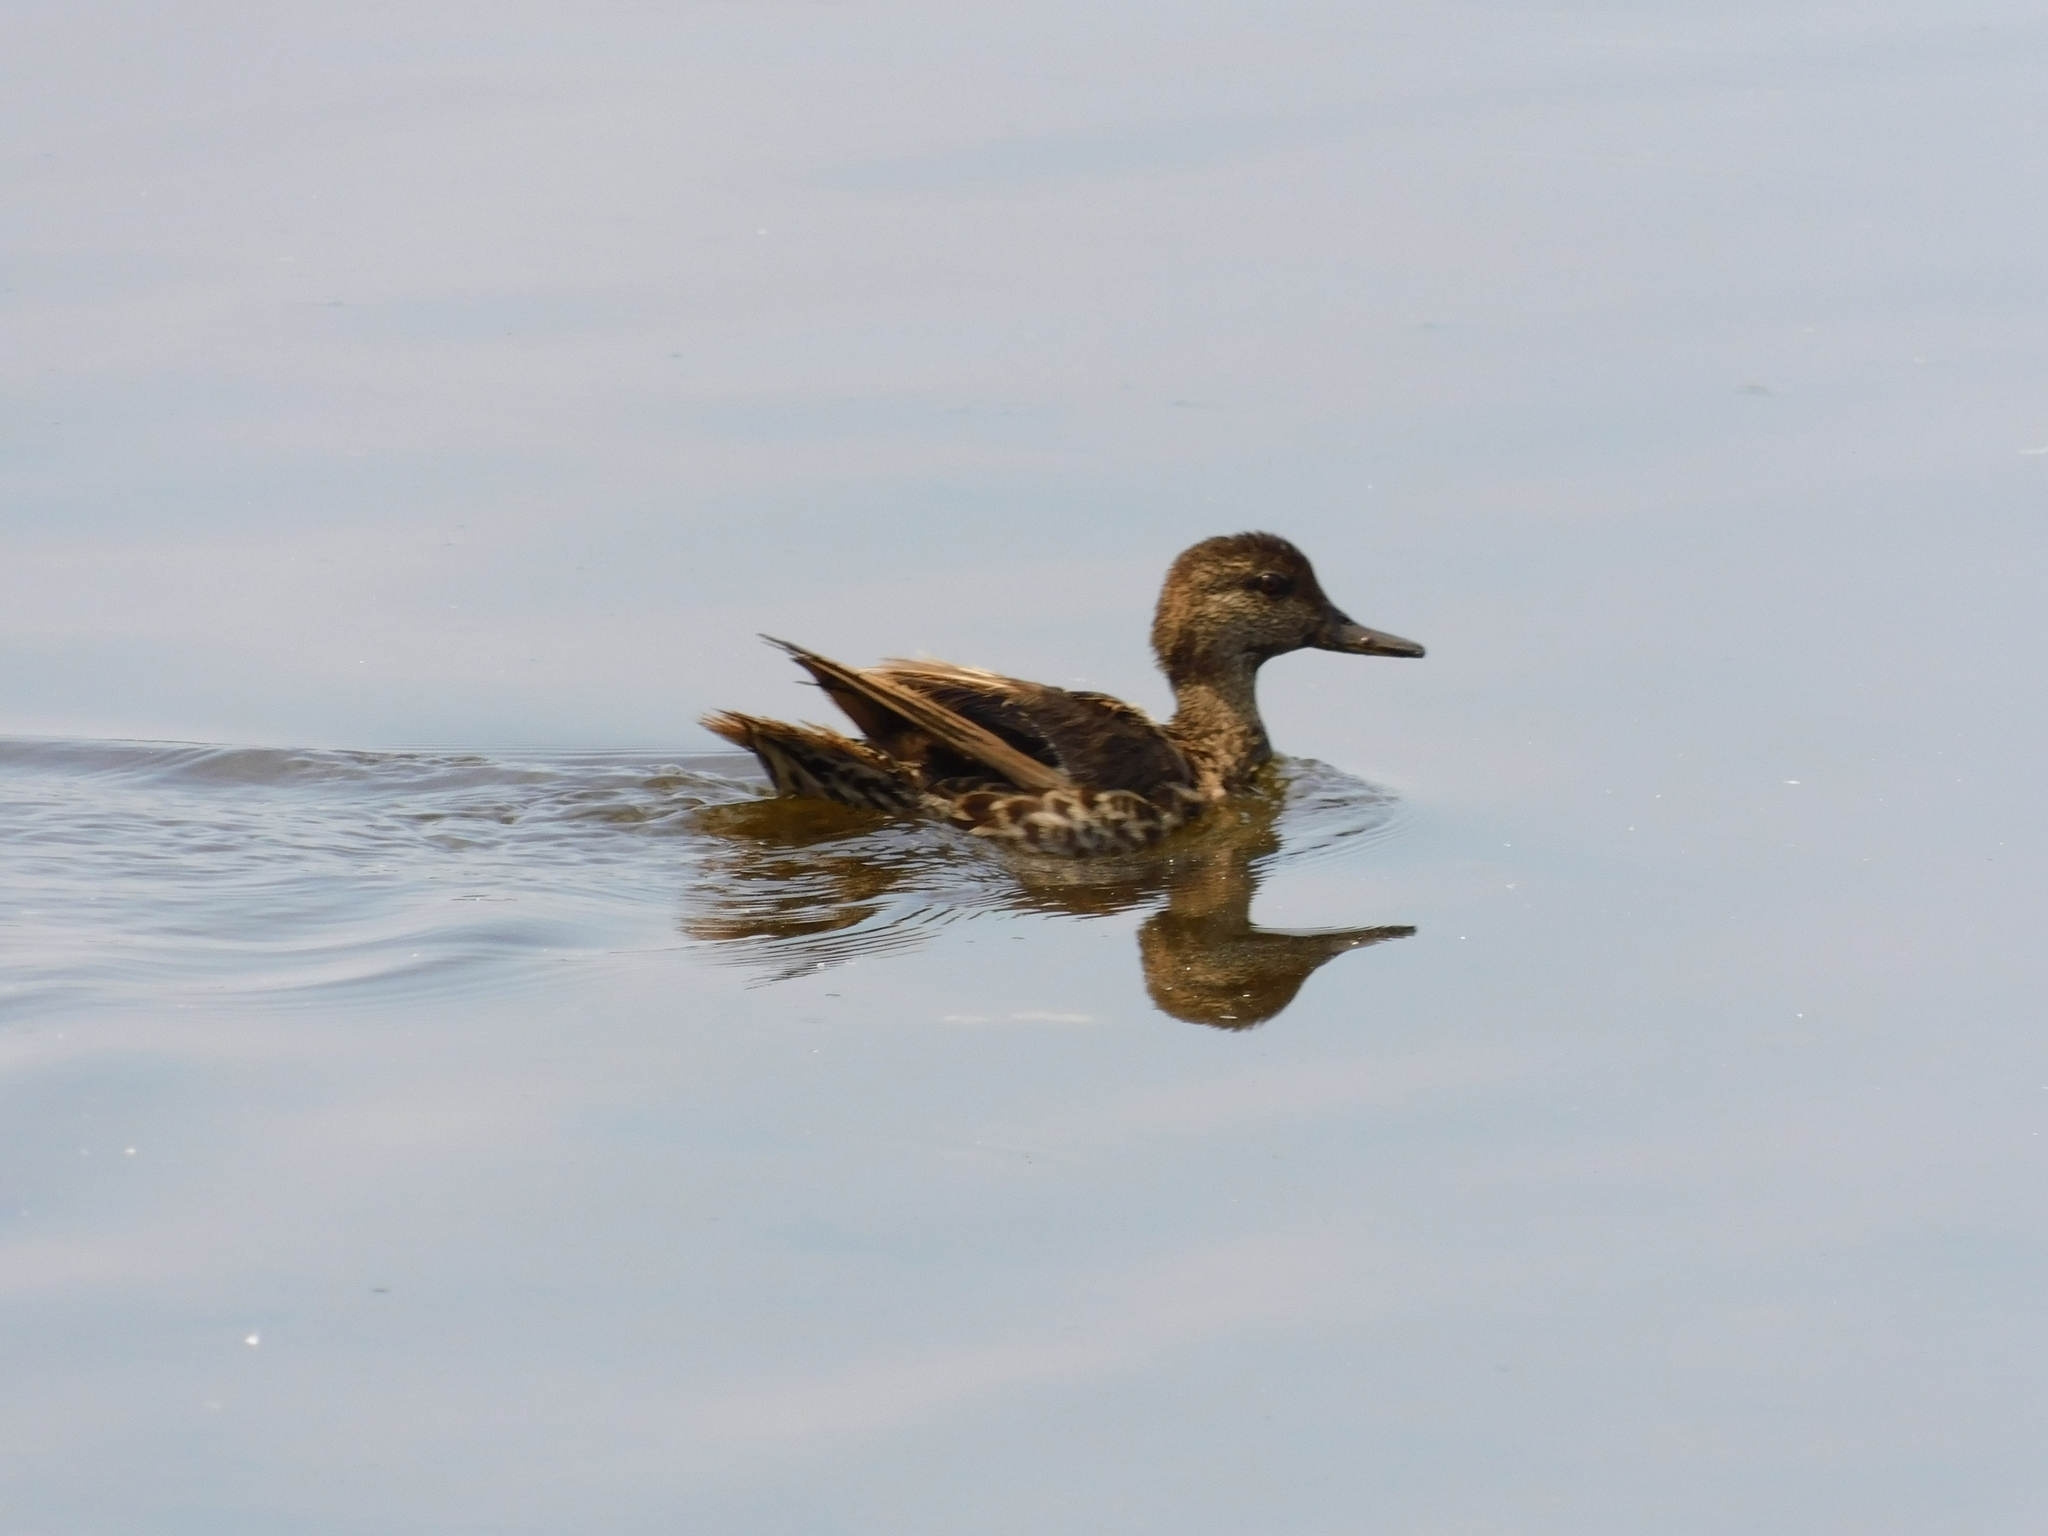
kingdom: Animalia
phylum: Chordata
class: Aves
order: Anseriformes
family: Anatidae
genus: Anas
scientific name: Anas crecca
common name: Eurasian teal
